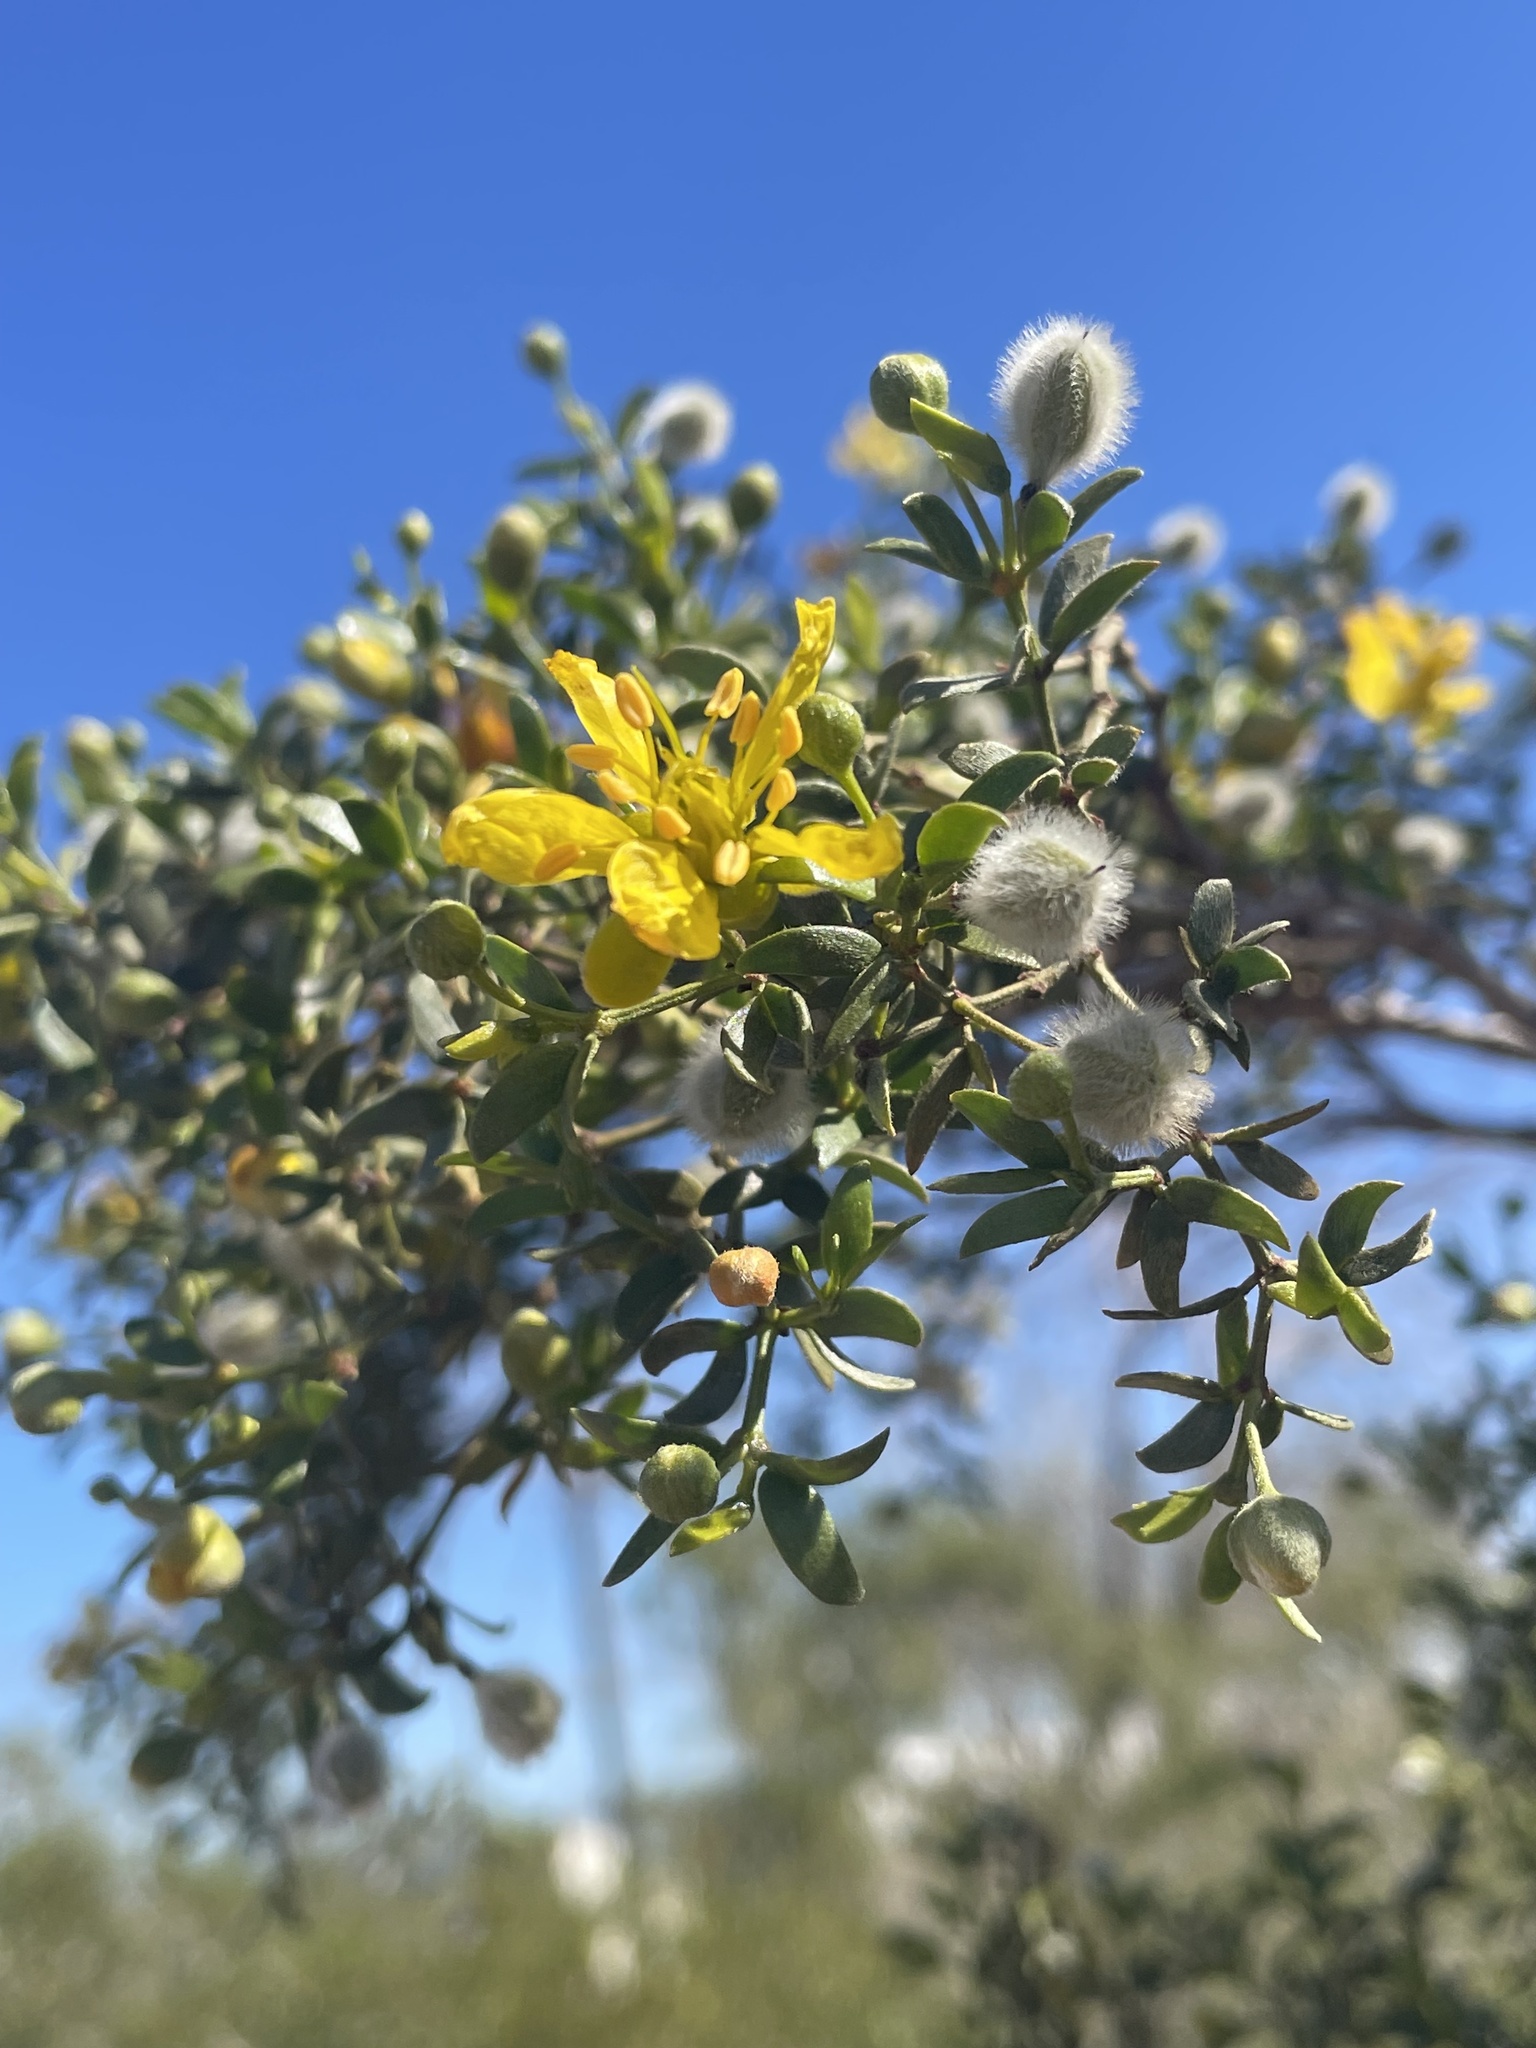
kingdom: Plantae
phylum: Tracheophyta
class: Magnoliopsida
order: Zygophyllales
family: Zygophyllaceae
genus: Larrea
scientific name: Larrea tridentata
